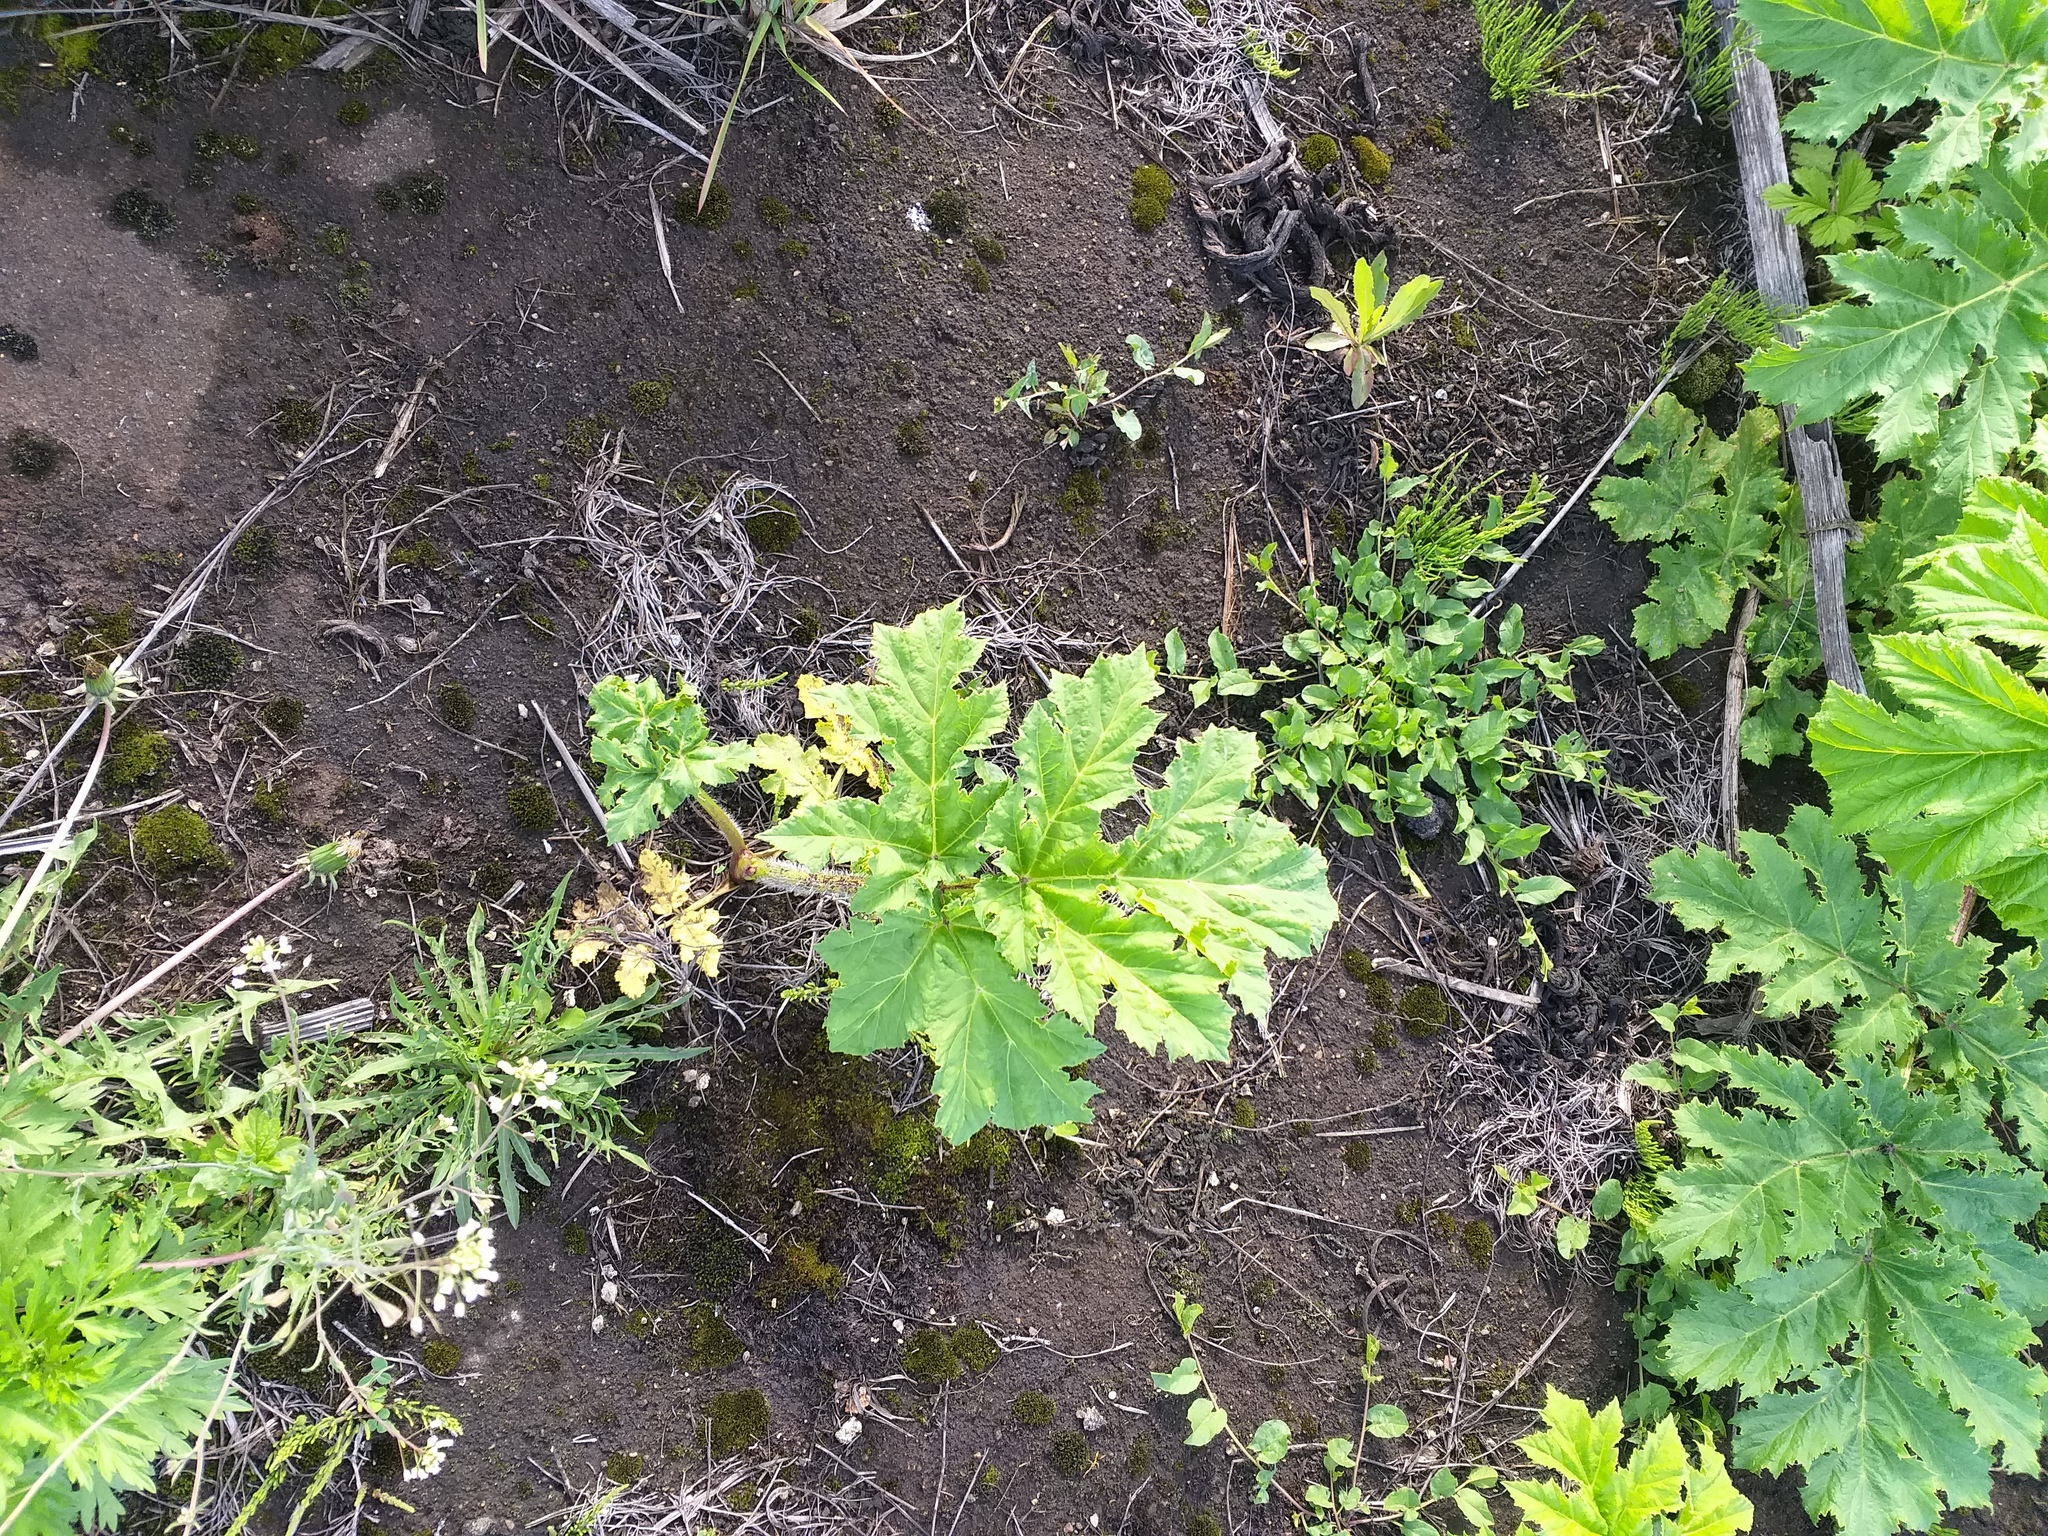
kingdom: Plantae
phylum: Tracheophyta
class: Magnoliopsida
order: Apiales
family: Apiaceae
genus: Heracleum
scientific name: Heracleum sosnowskyi
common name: Sosnowsky's hogweed
